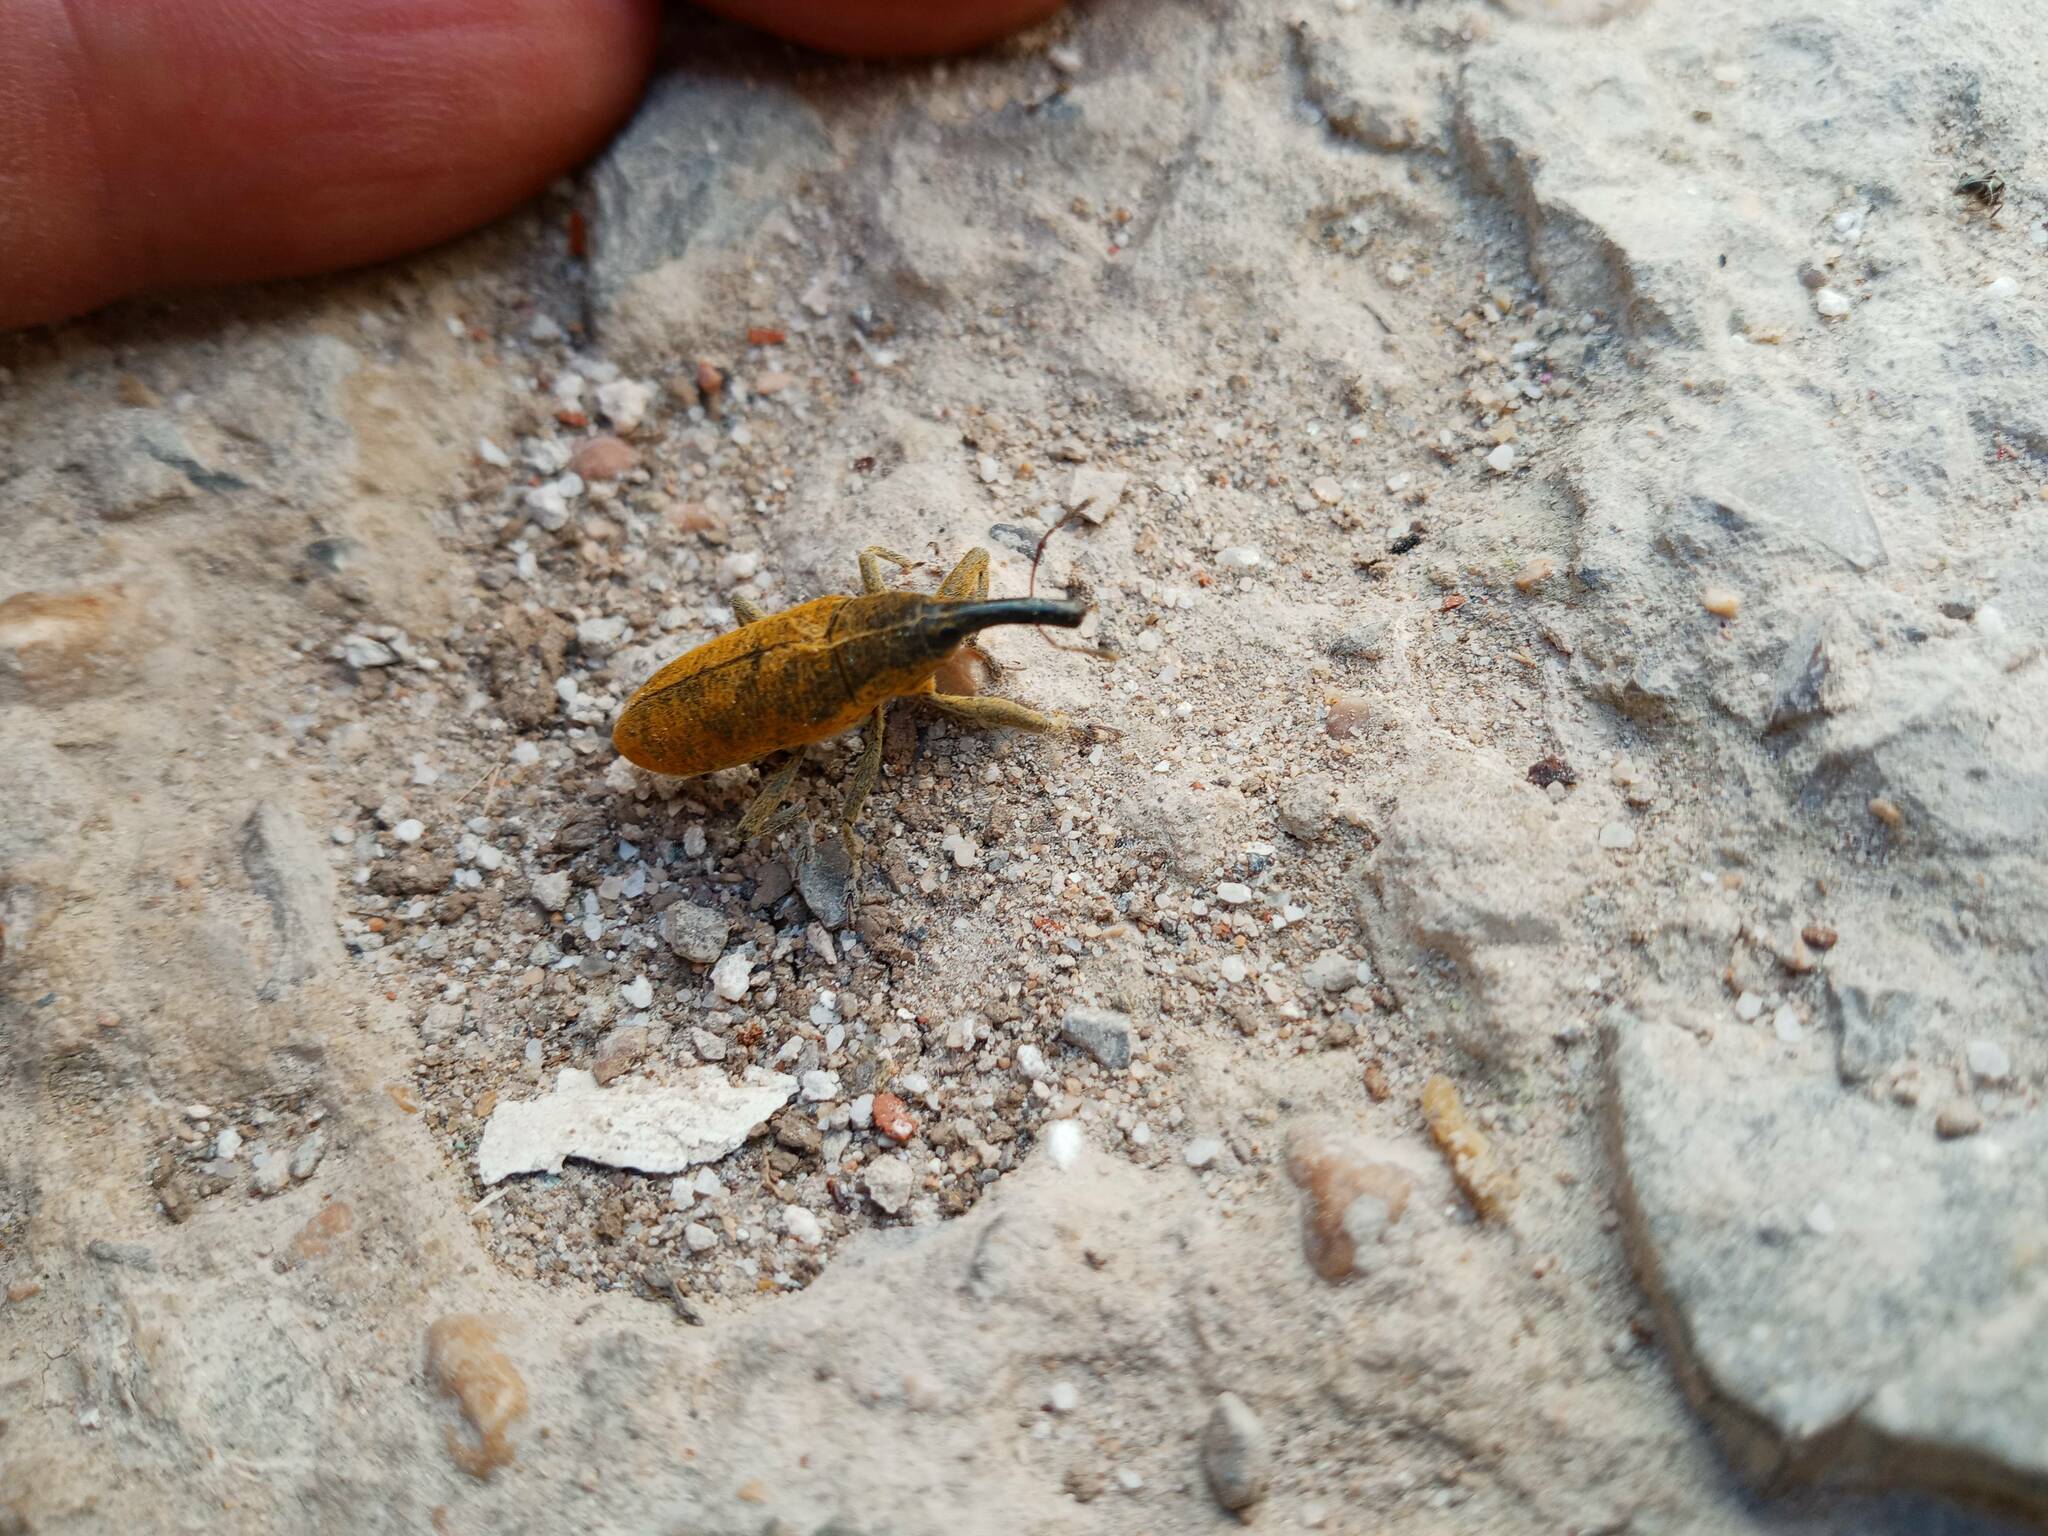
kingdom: Animalia
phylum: Arthropoda
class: Insecta
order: Coleoptera
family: Curculionidae
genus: Lixus
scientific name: Lixus pulverulentus
